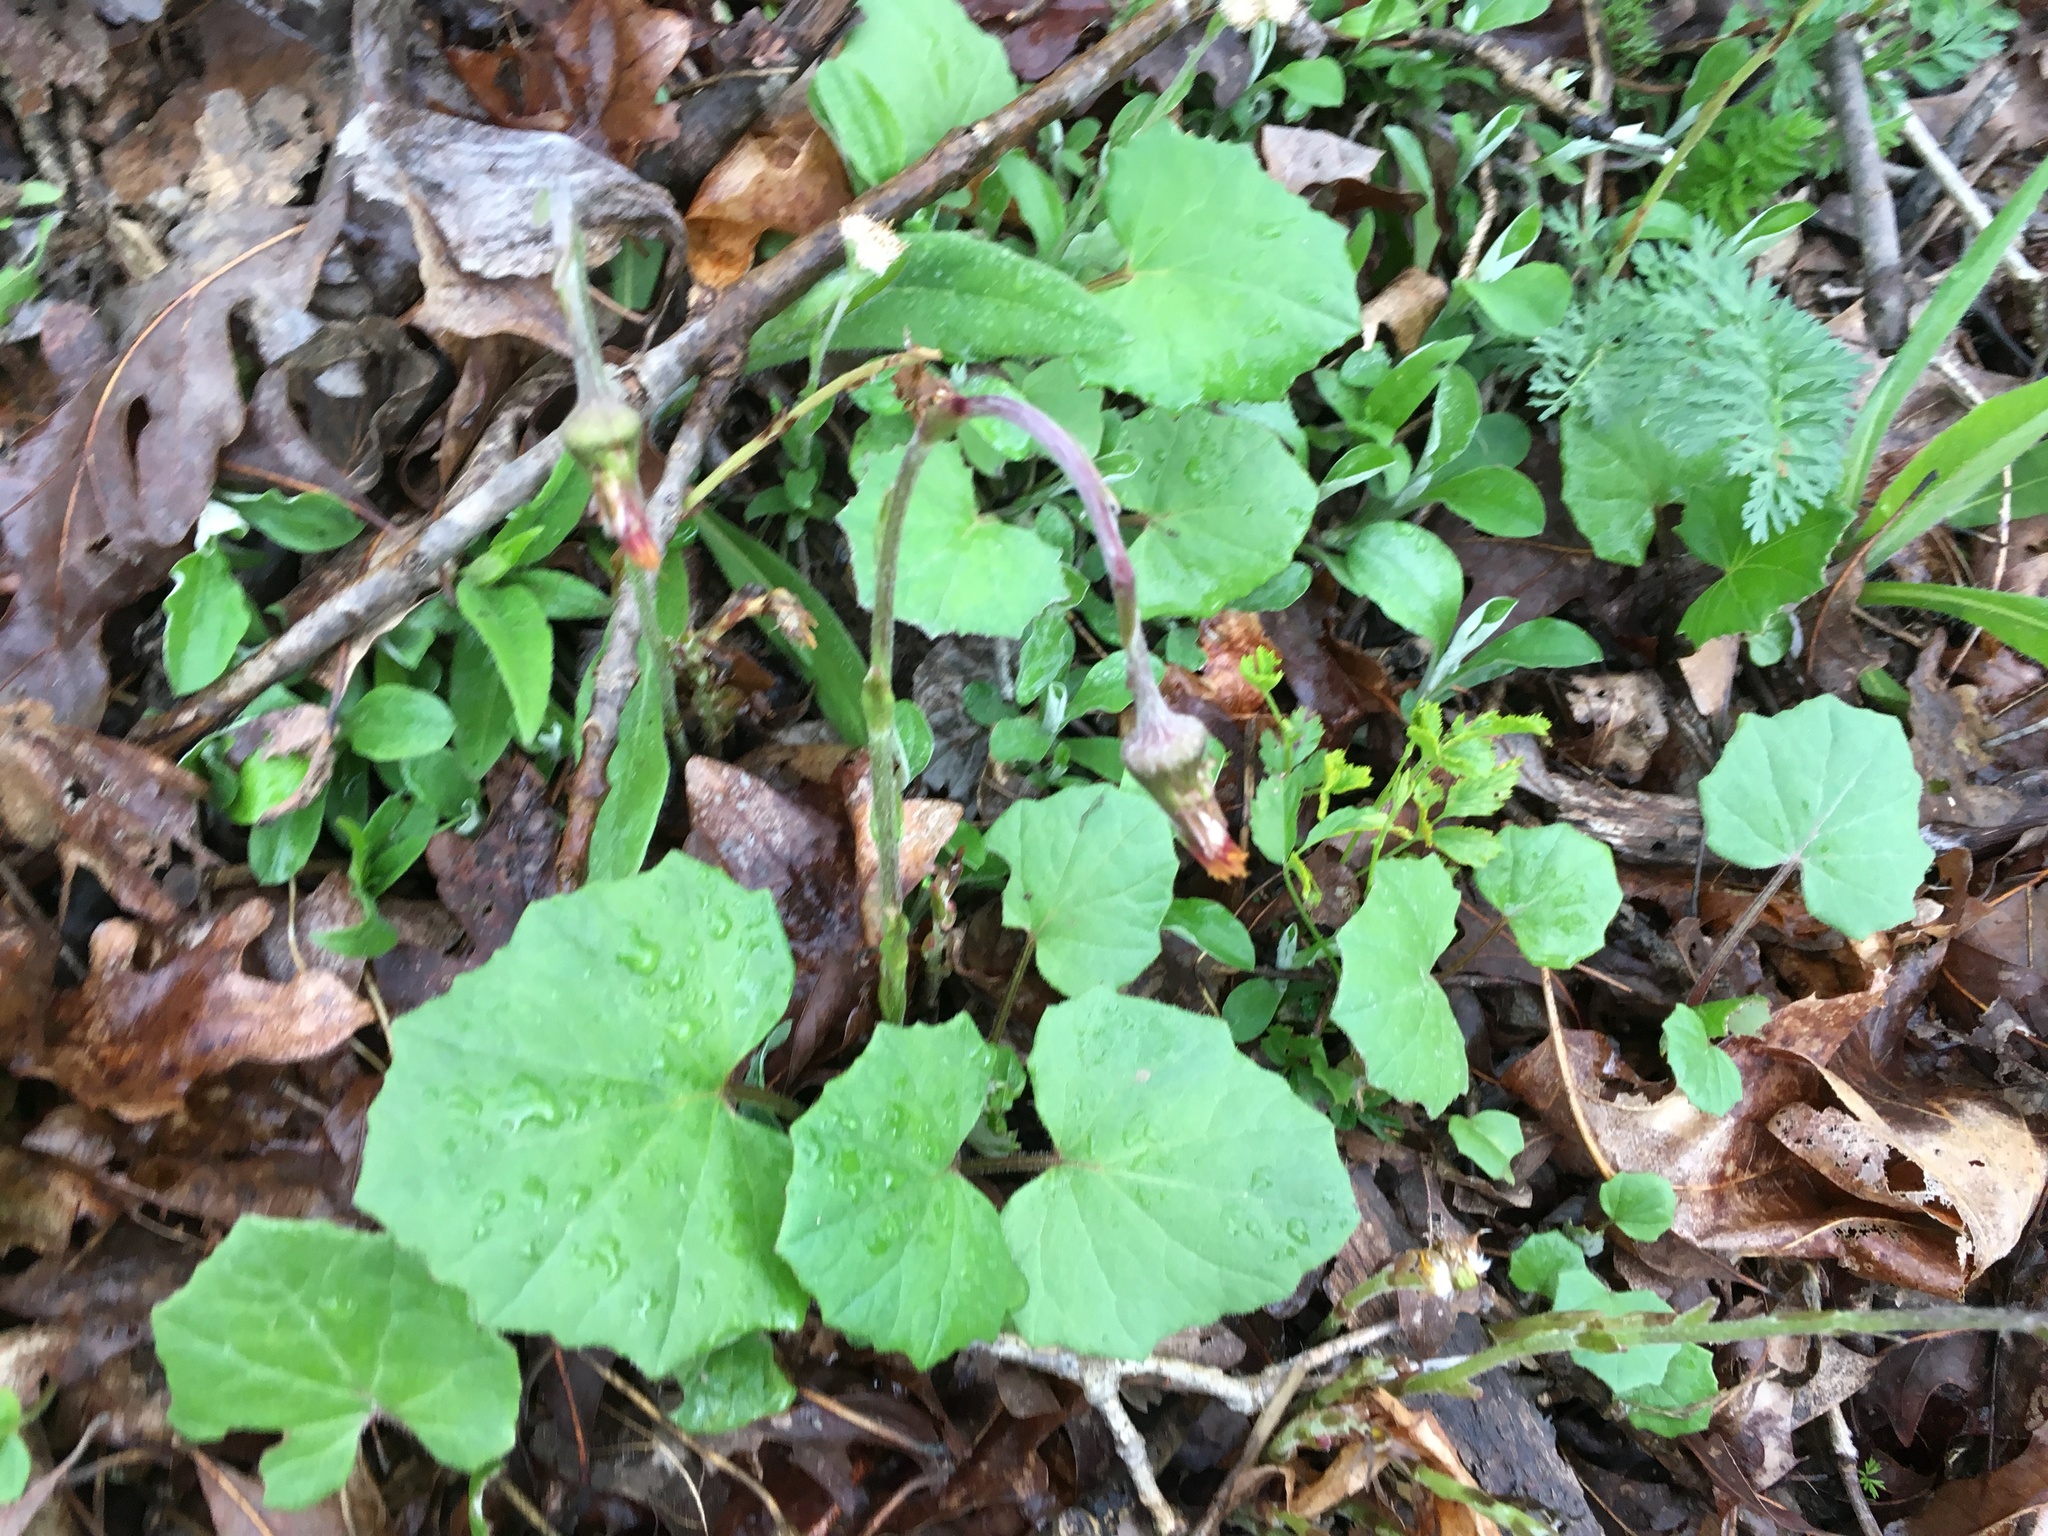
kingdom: Plantae
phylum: Tracheophyta
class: Magnoliopsida
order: Asterales
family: Asteraceae
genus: Tussilago
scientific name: Tussilago farfara
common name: Coltsfoot
